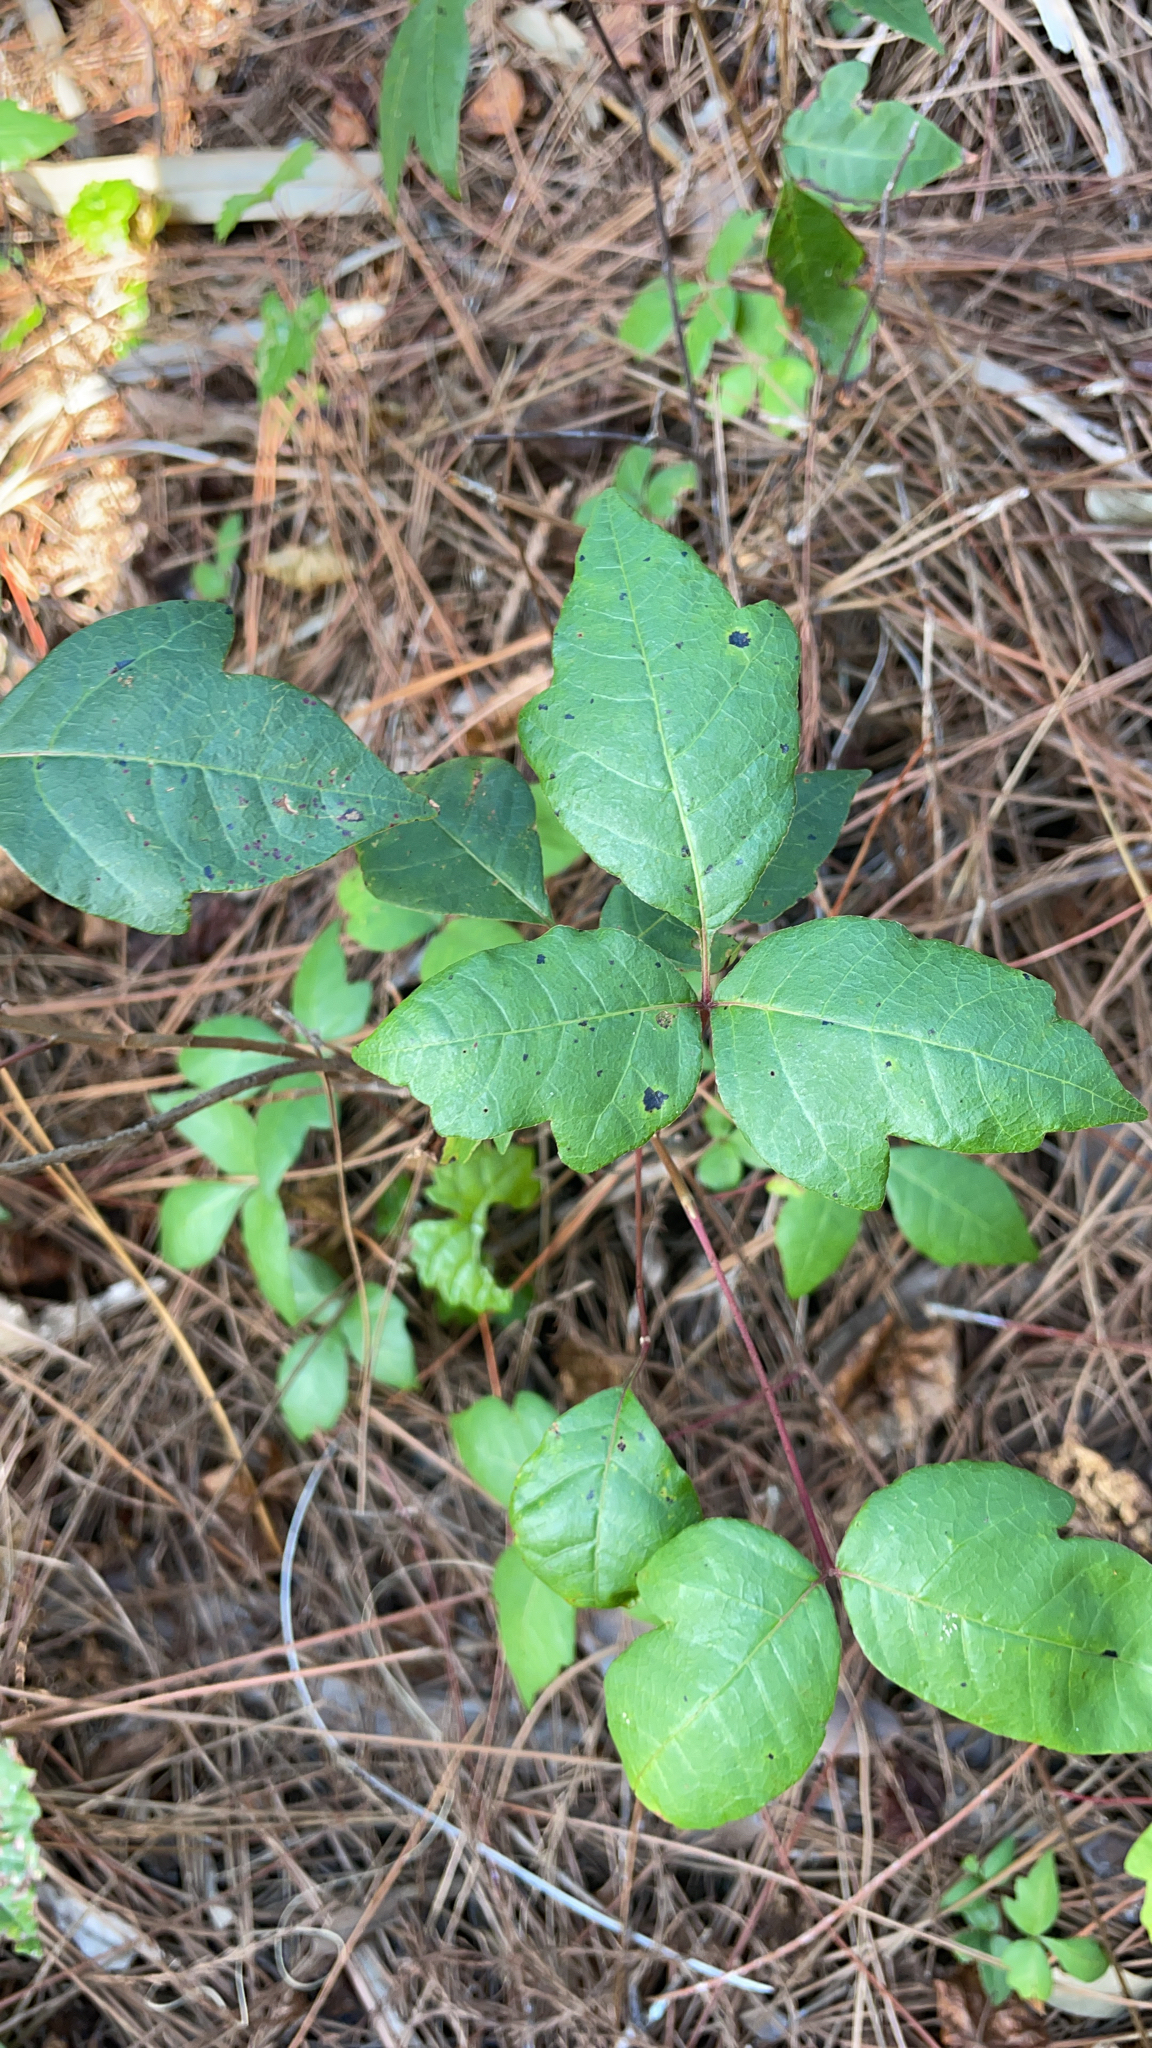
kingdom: Plantae
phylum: Tracheophyta
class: Magnoliopsida
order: Sapindales
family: Anacardiaceae
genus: Toxicodendron
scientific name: Toxicodendron radicans
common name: Poison ivy
